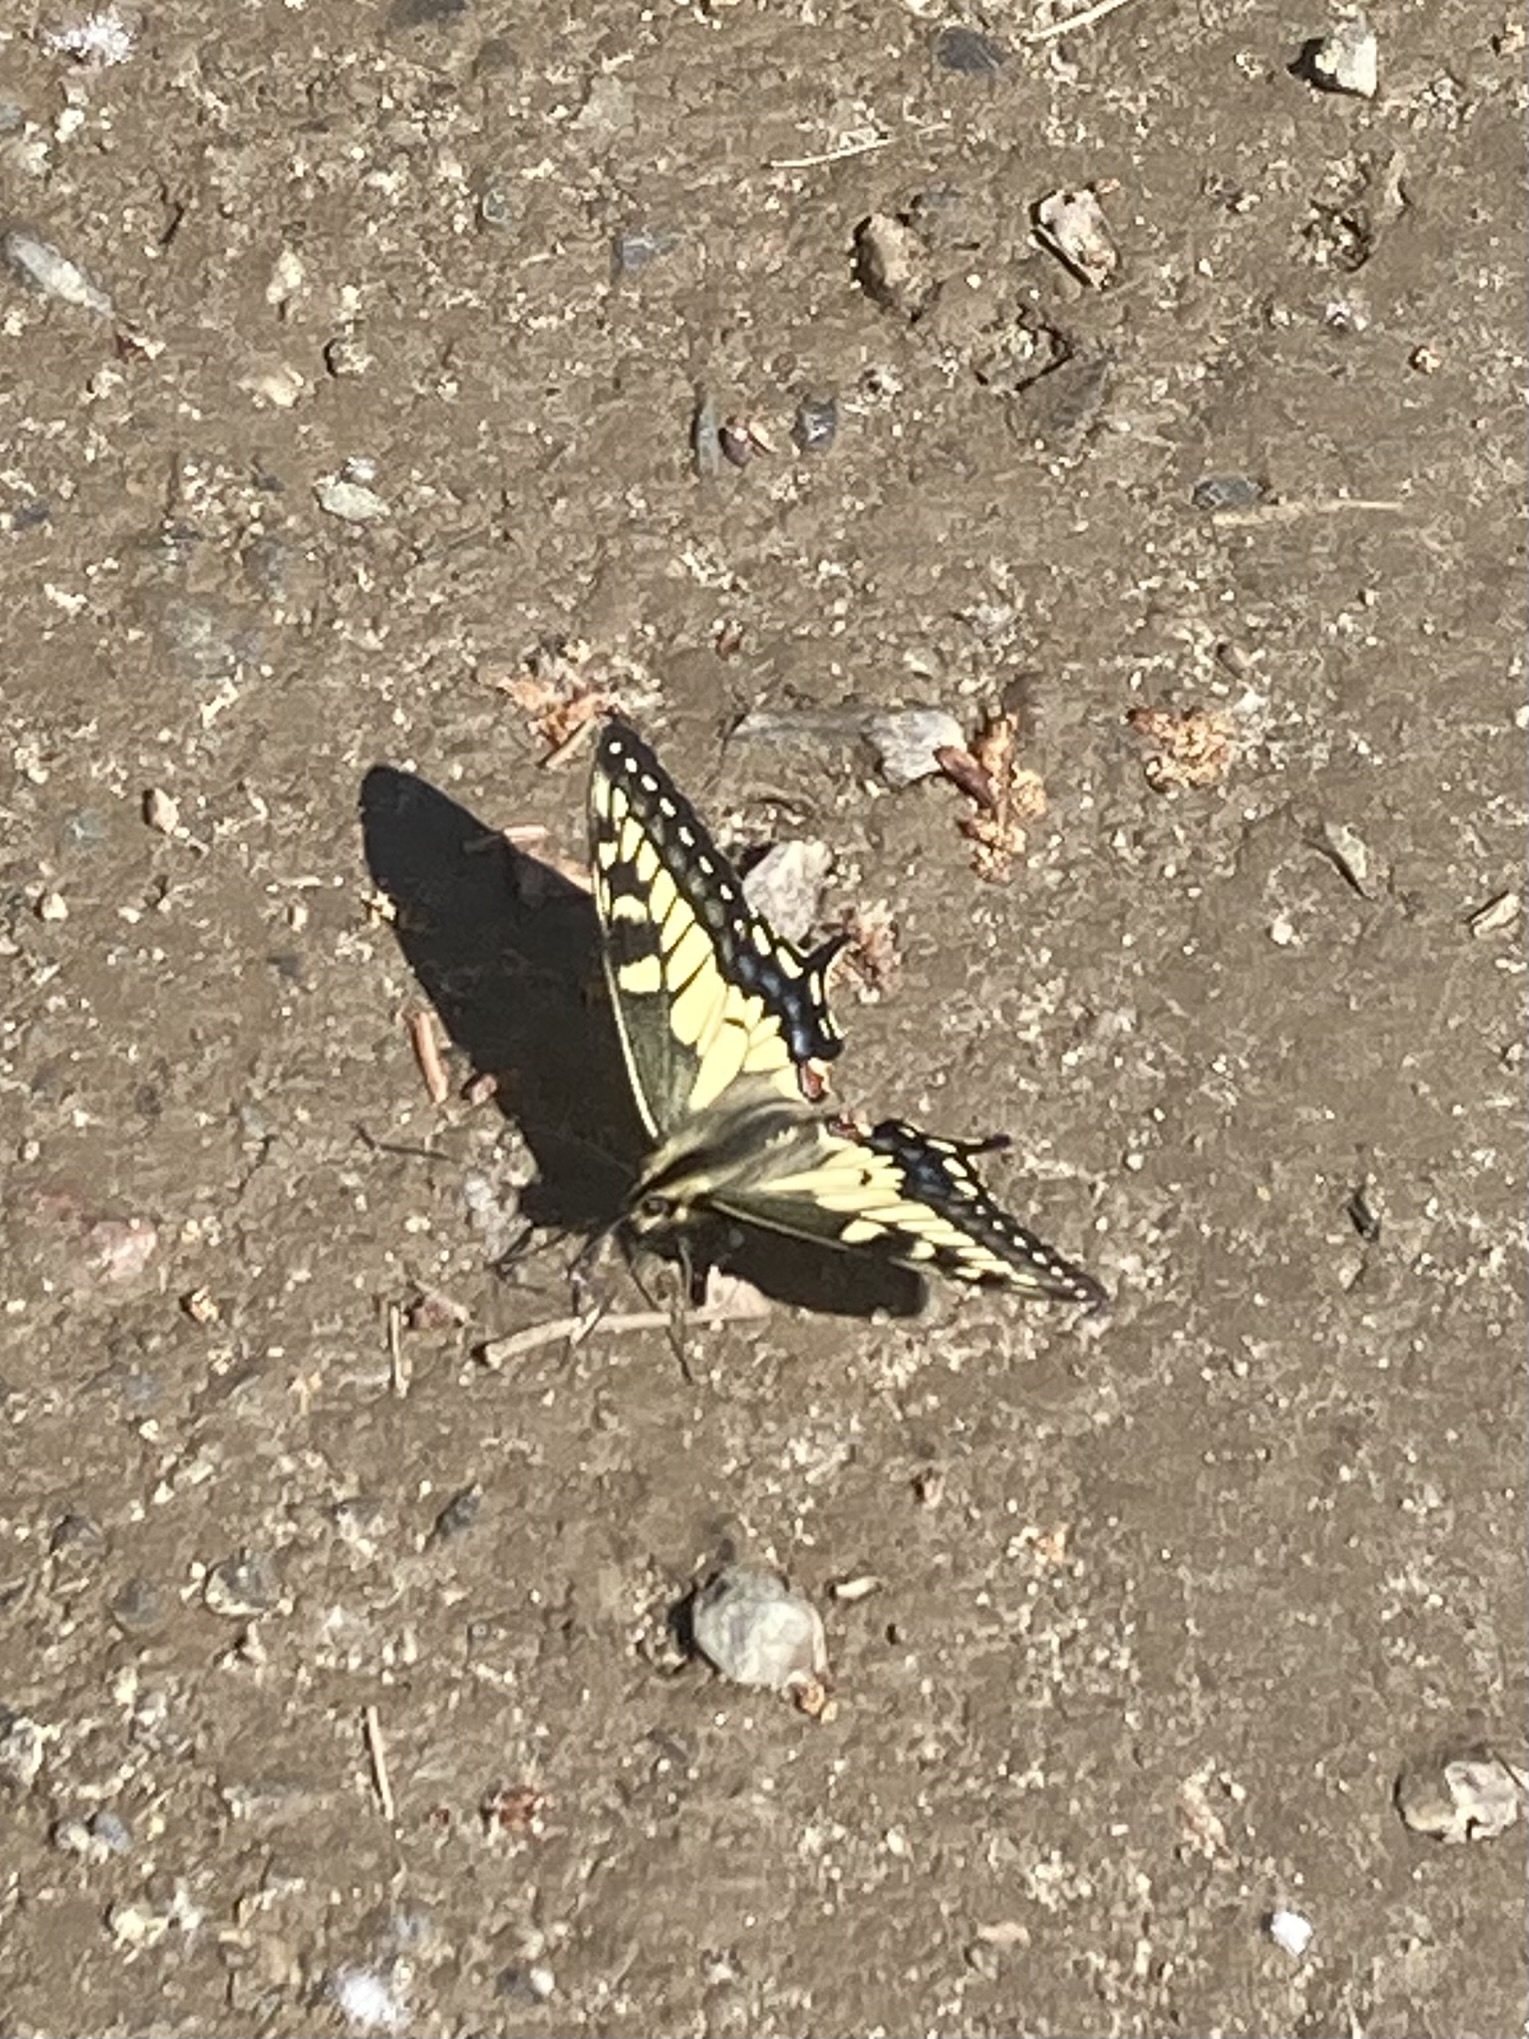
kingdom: Animalia
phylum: Arthropoda
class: Insecta
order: Lepidoptera
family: Papilionidae
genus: Papilio
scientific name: Papilio machaon
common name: Swallowtail
